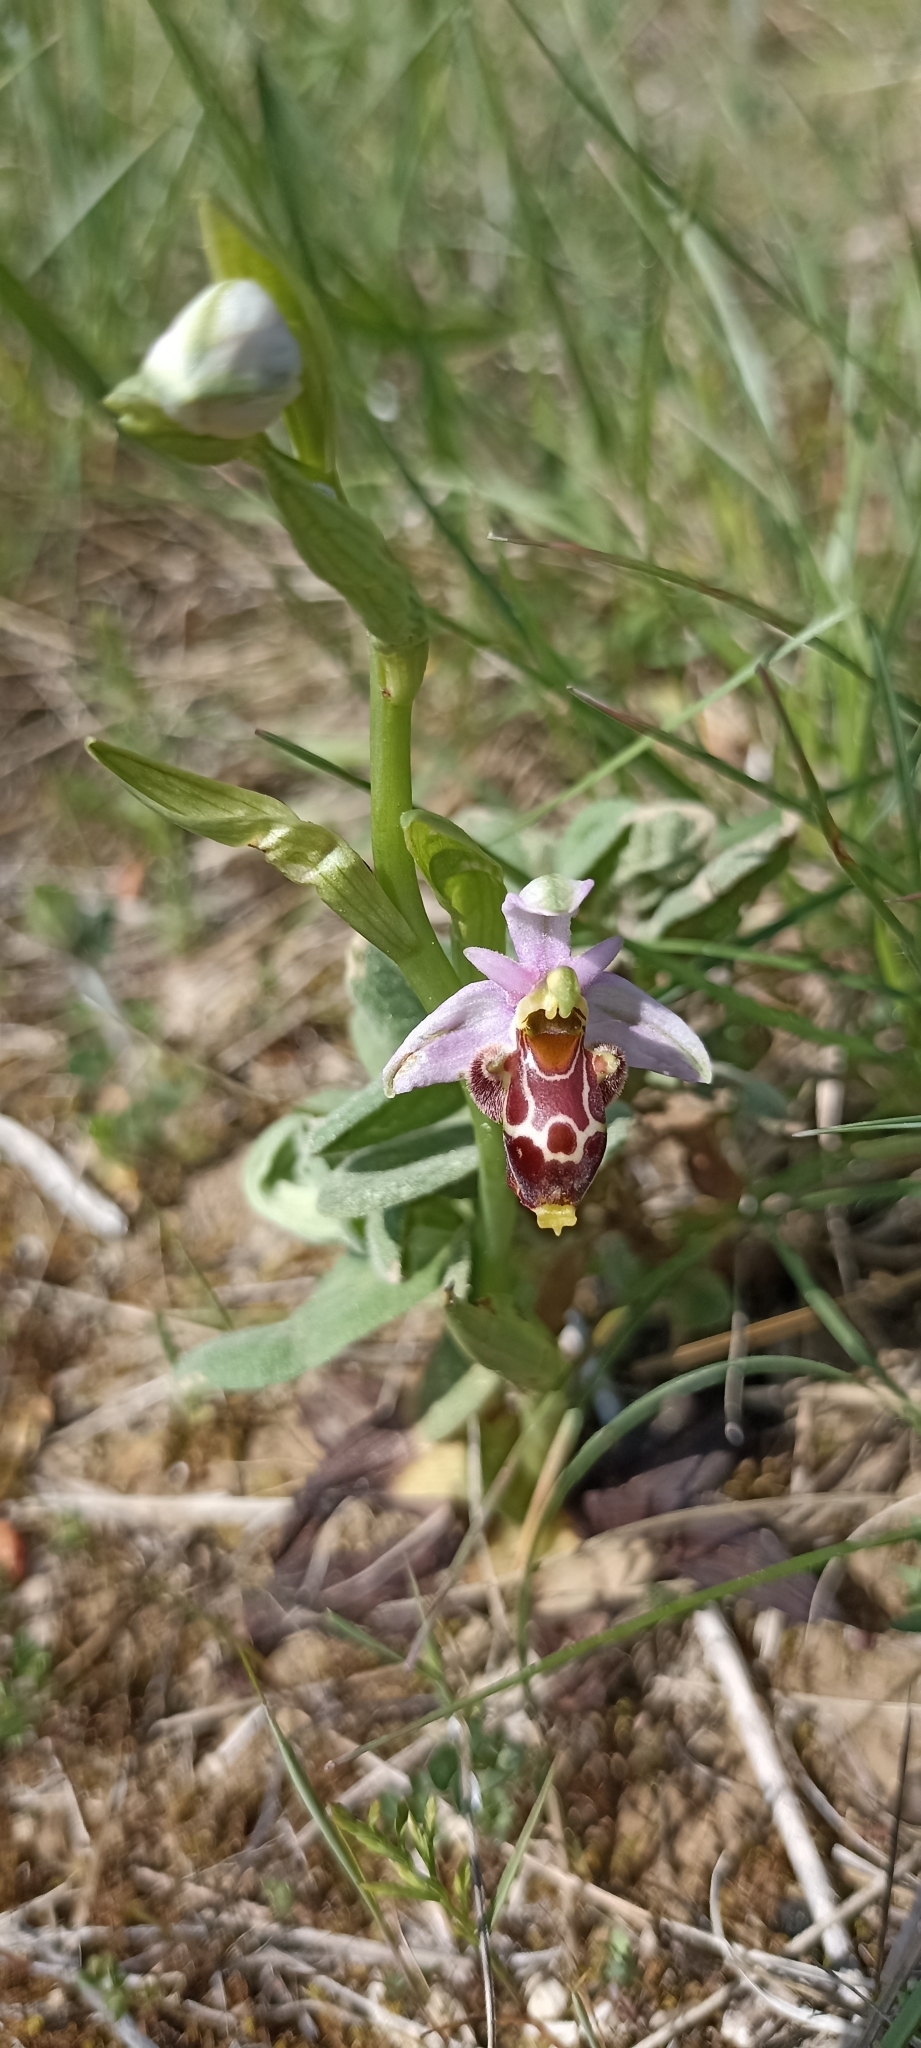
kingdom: Plantae
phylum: Tracheophyta
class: Liliopsida
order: Asparagales
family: Orchidaceae
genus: Ophrys
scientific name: Ophrys scolopax
